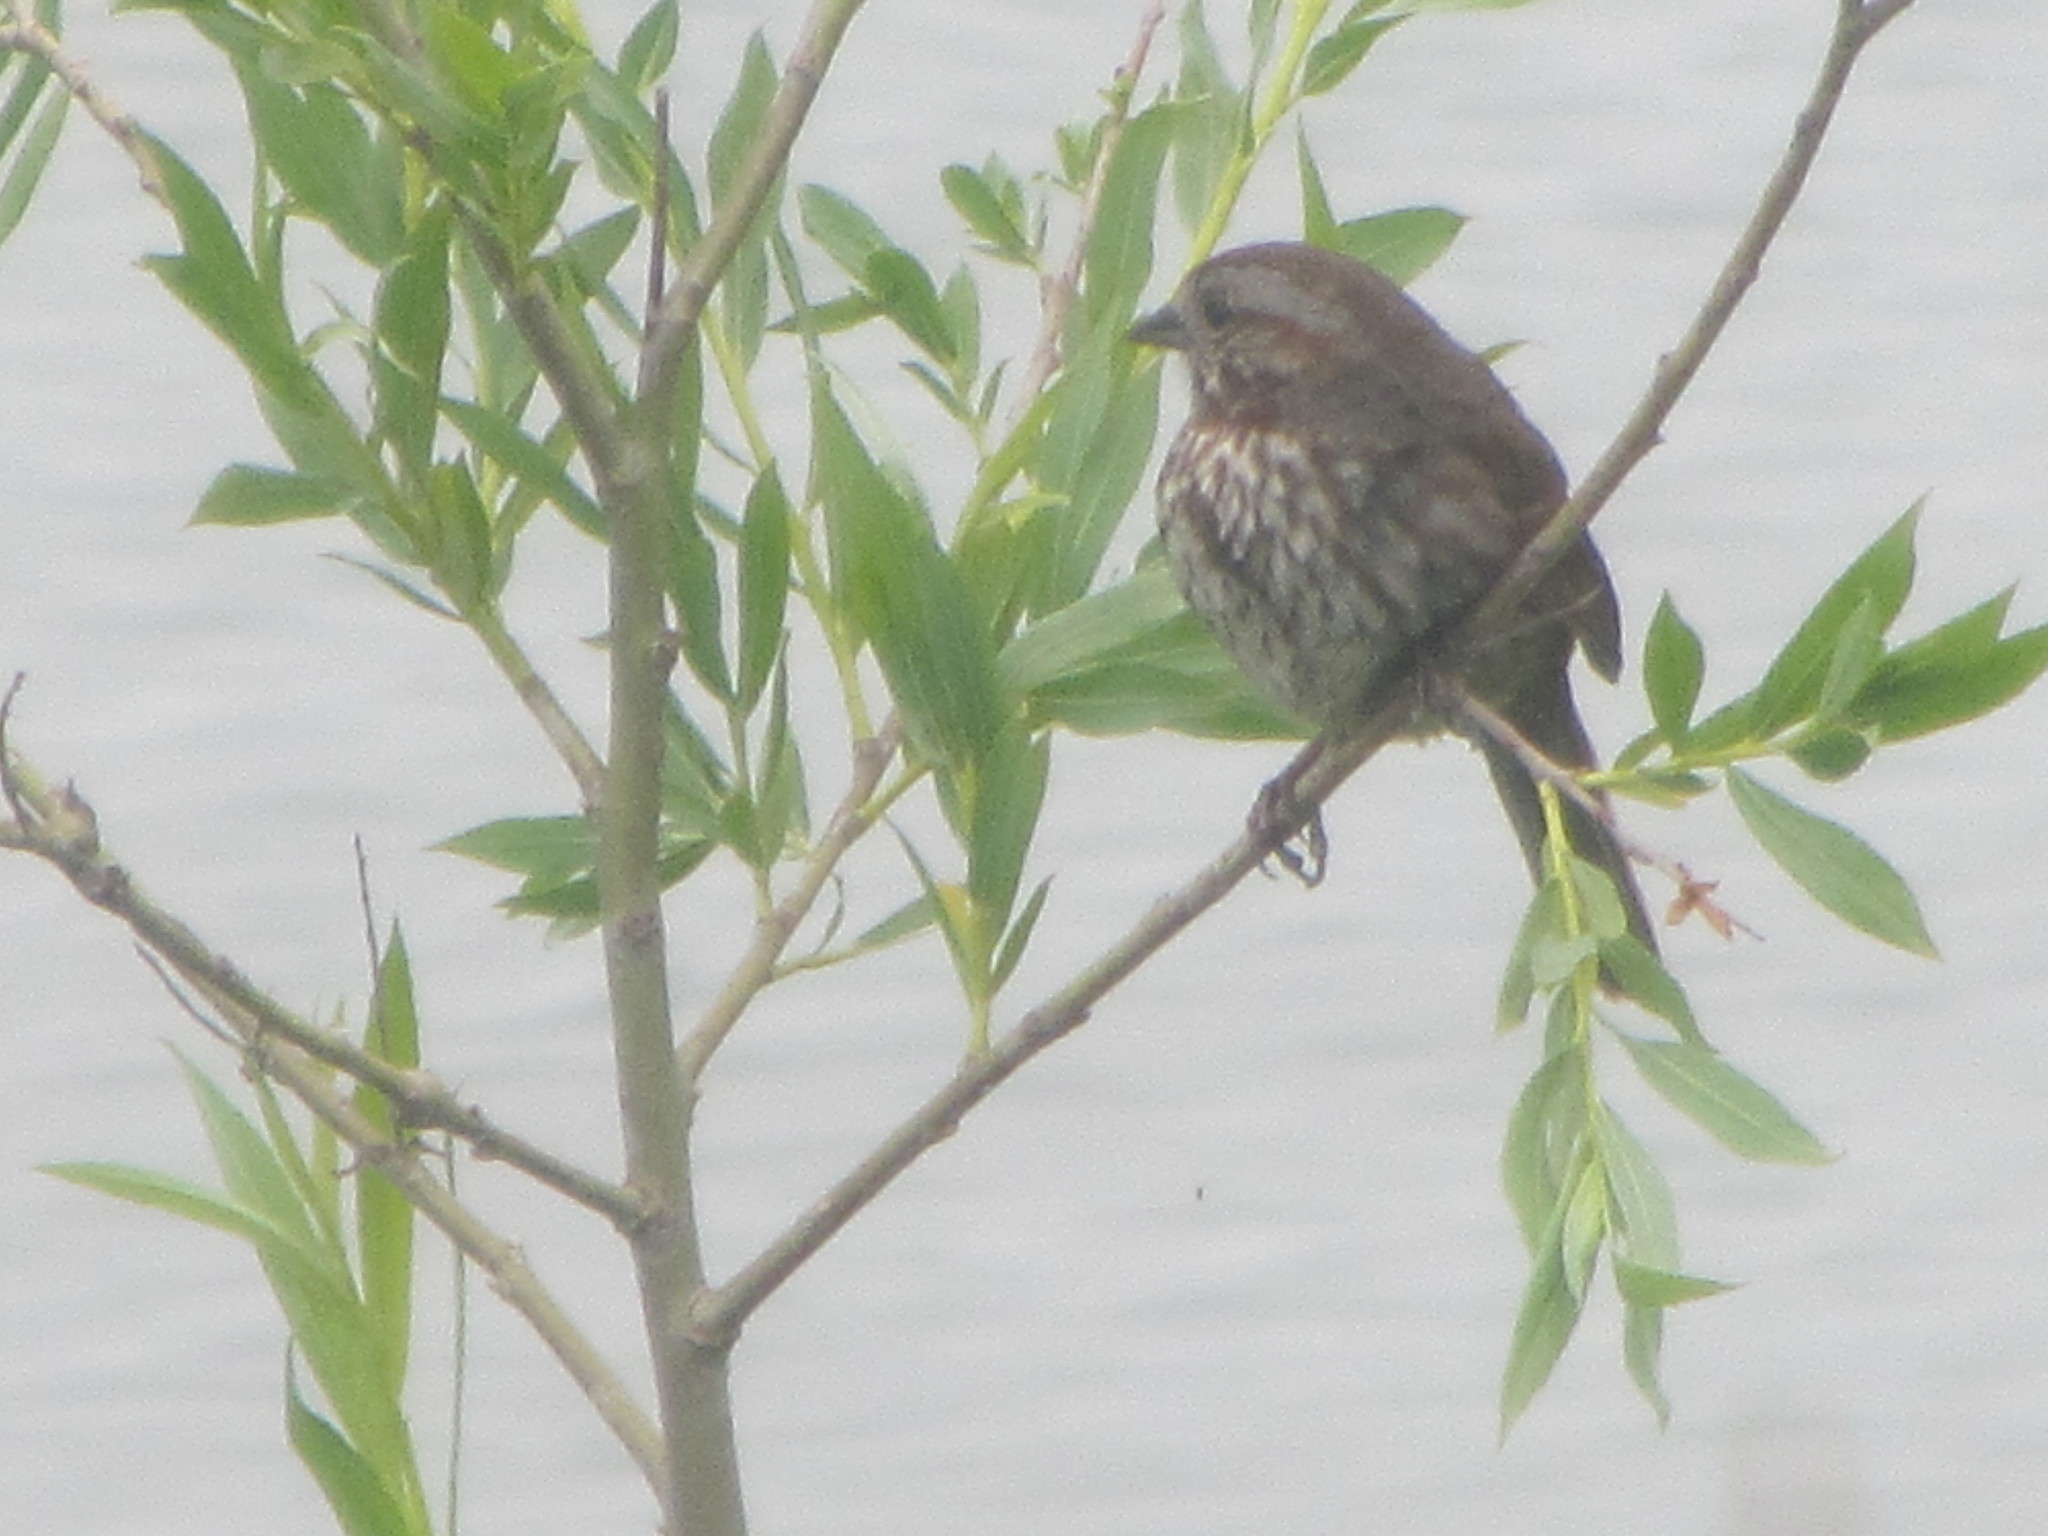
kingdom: Animalia
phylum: Chordata
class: Aves
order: Passeriformes
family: Passerellidae
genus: Melospiza
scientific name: Melospiza melodia
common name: Song sparrow
